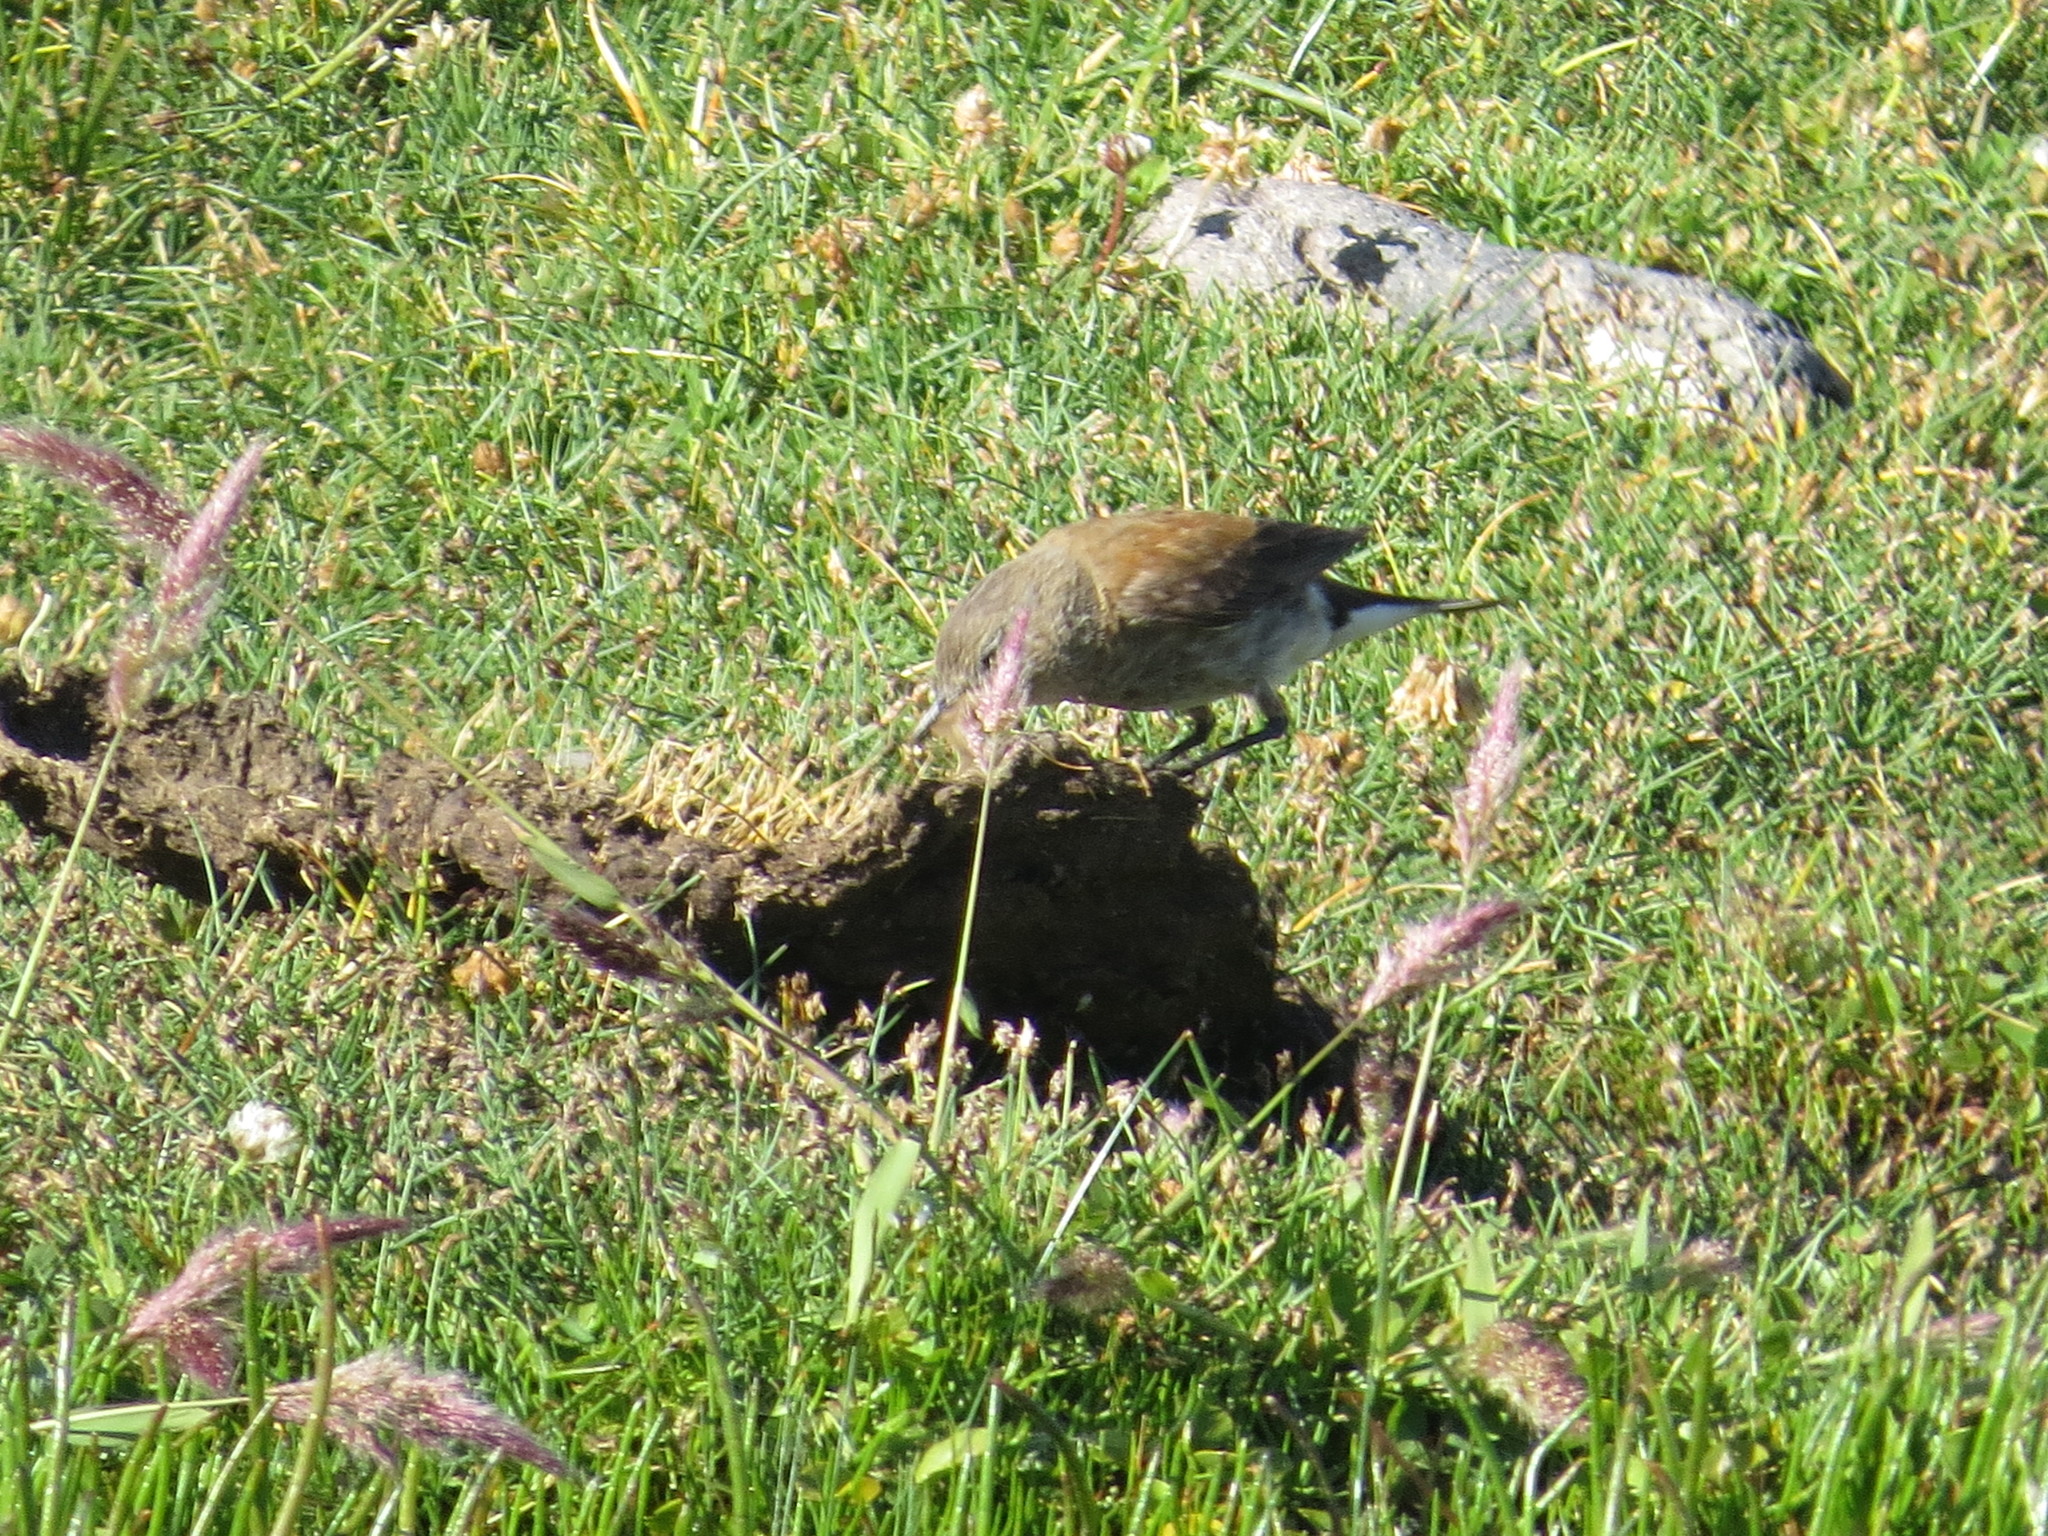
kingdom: Animalia
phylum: Chordata
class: Aves
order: Passeriformes
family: Tyrannidae
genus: Lessonia
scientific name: Lessonia rufa
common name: Austral negrito
